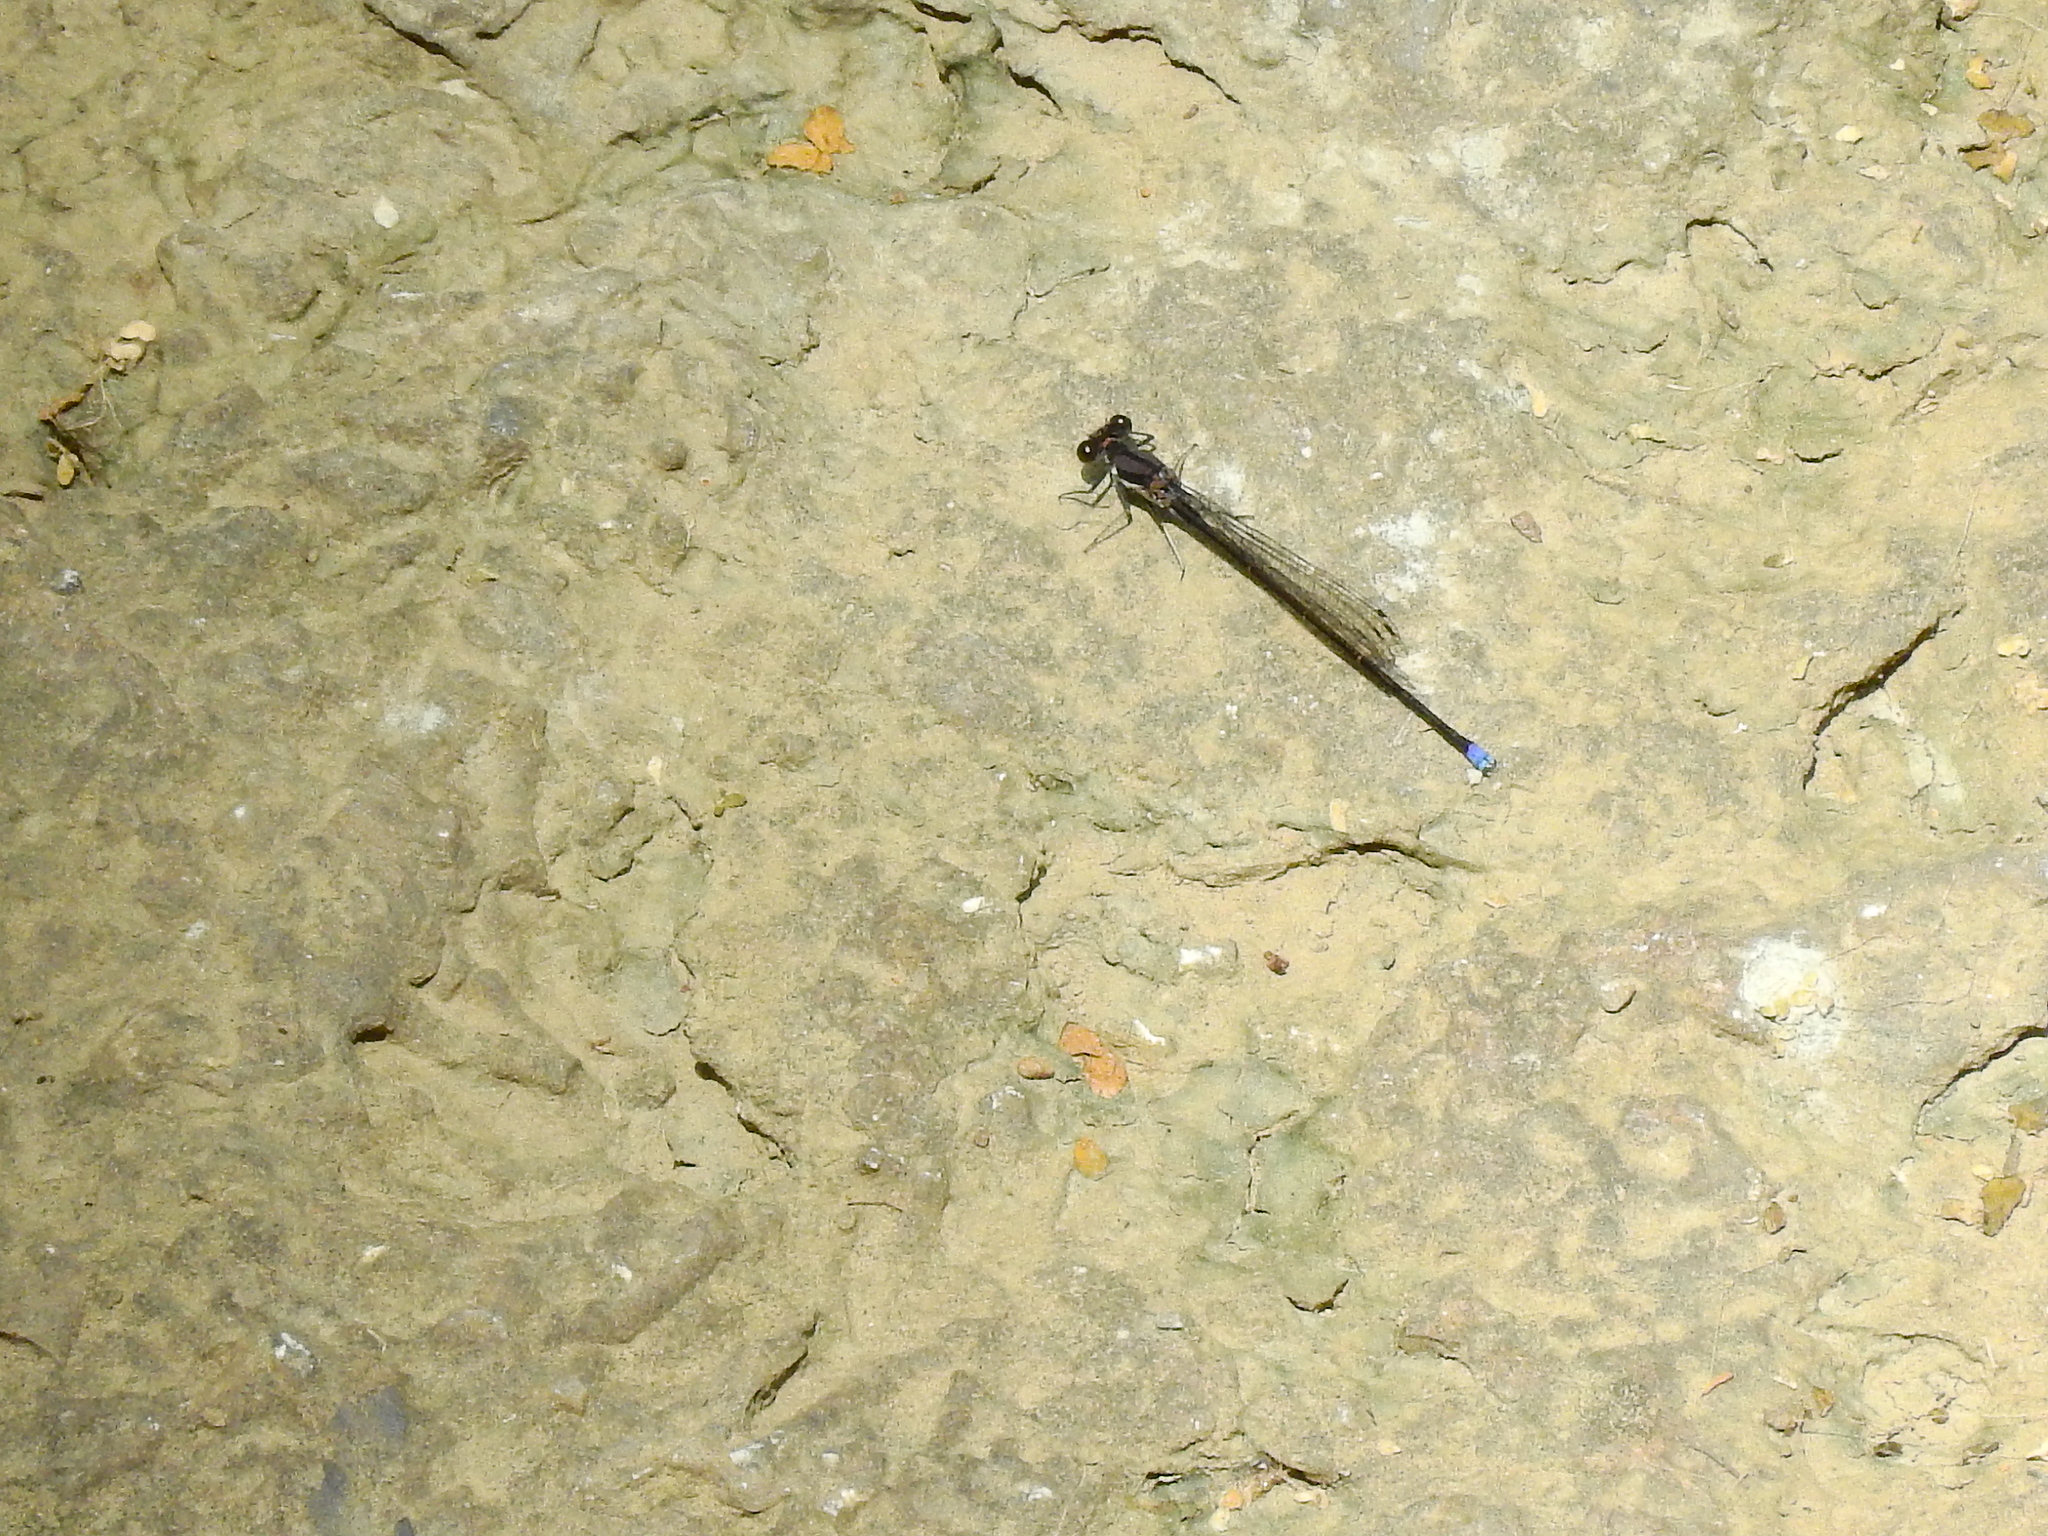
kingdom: Animalia
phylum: Arthropoda
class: Insecta
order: Odonata
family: Coenagrionidae
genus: Argia
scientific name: Argia tibialis
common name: Blue-tipped dancer
